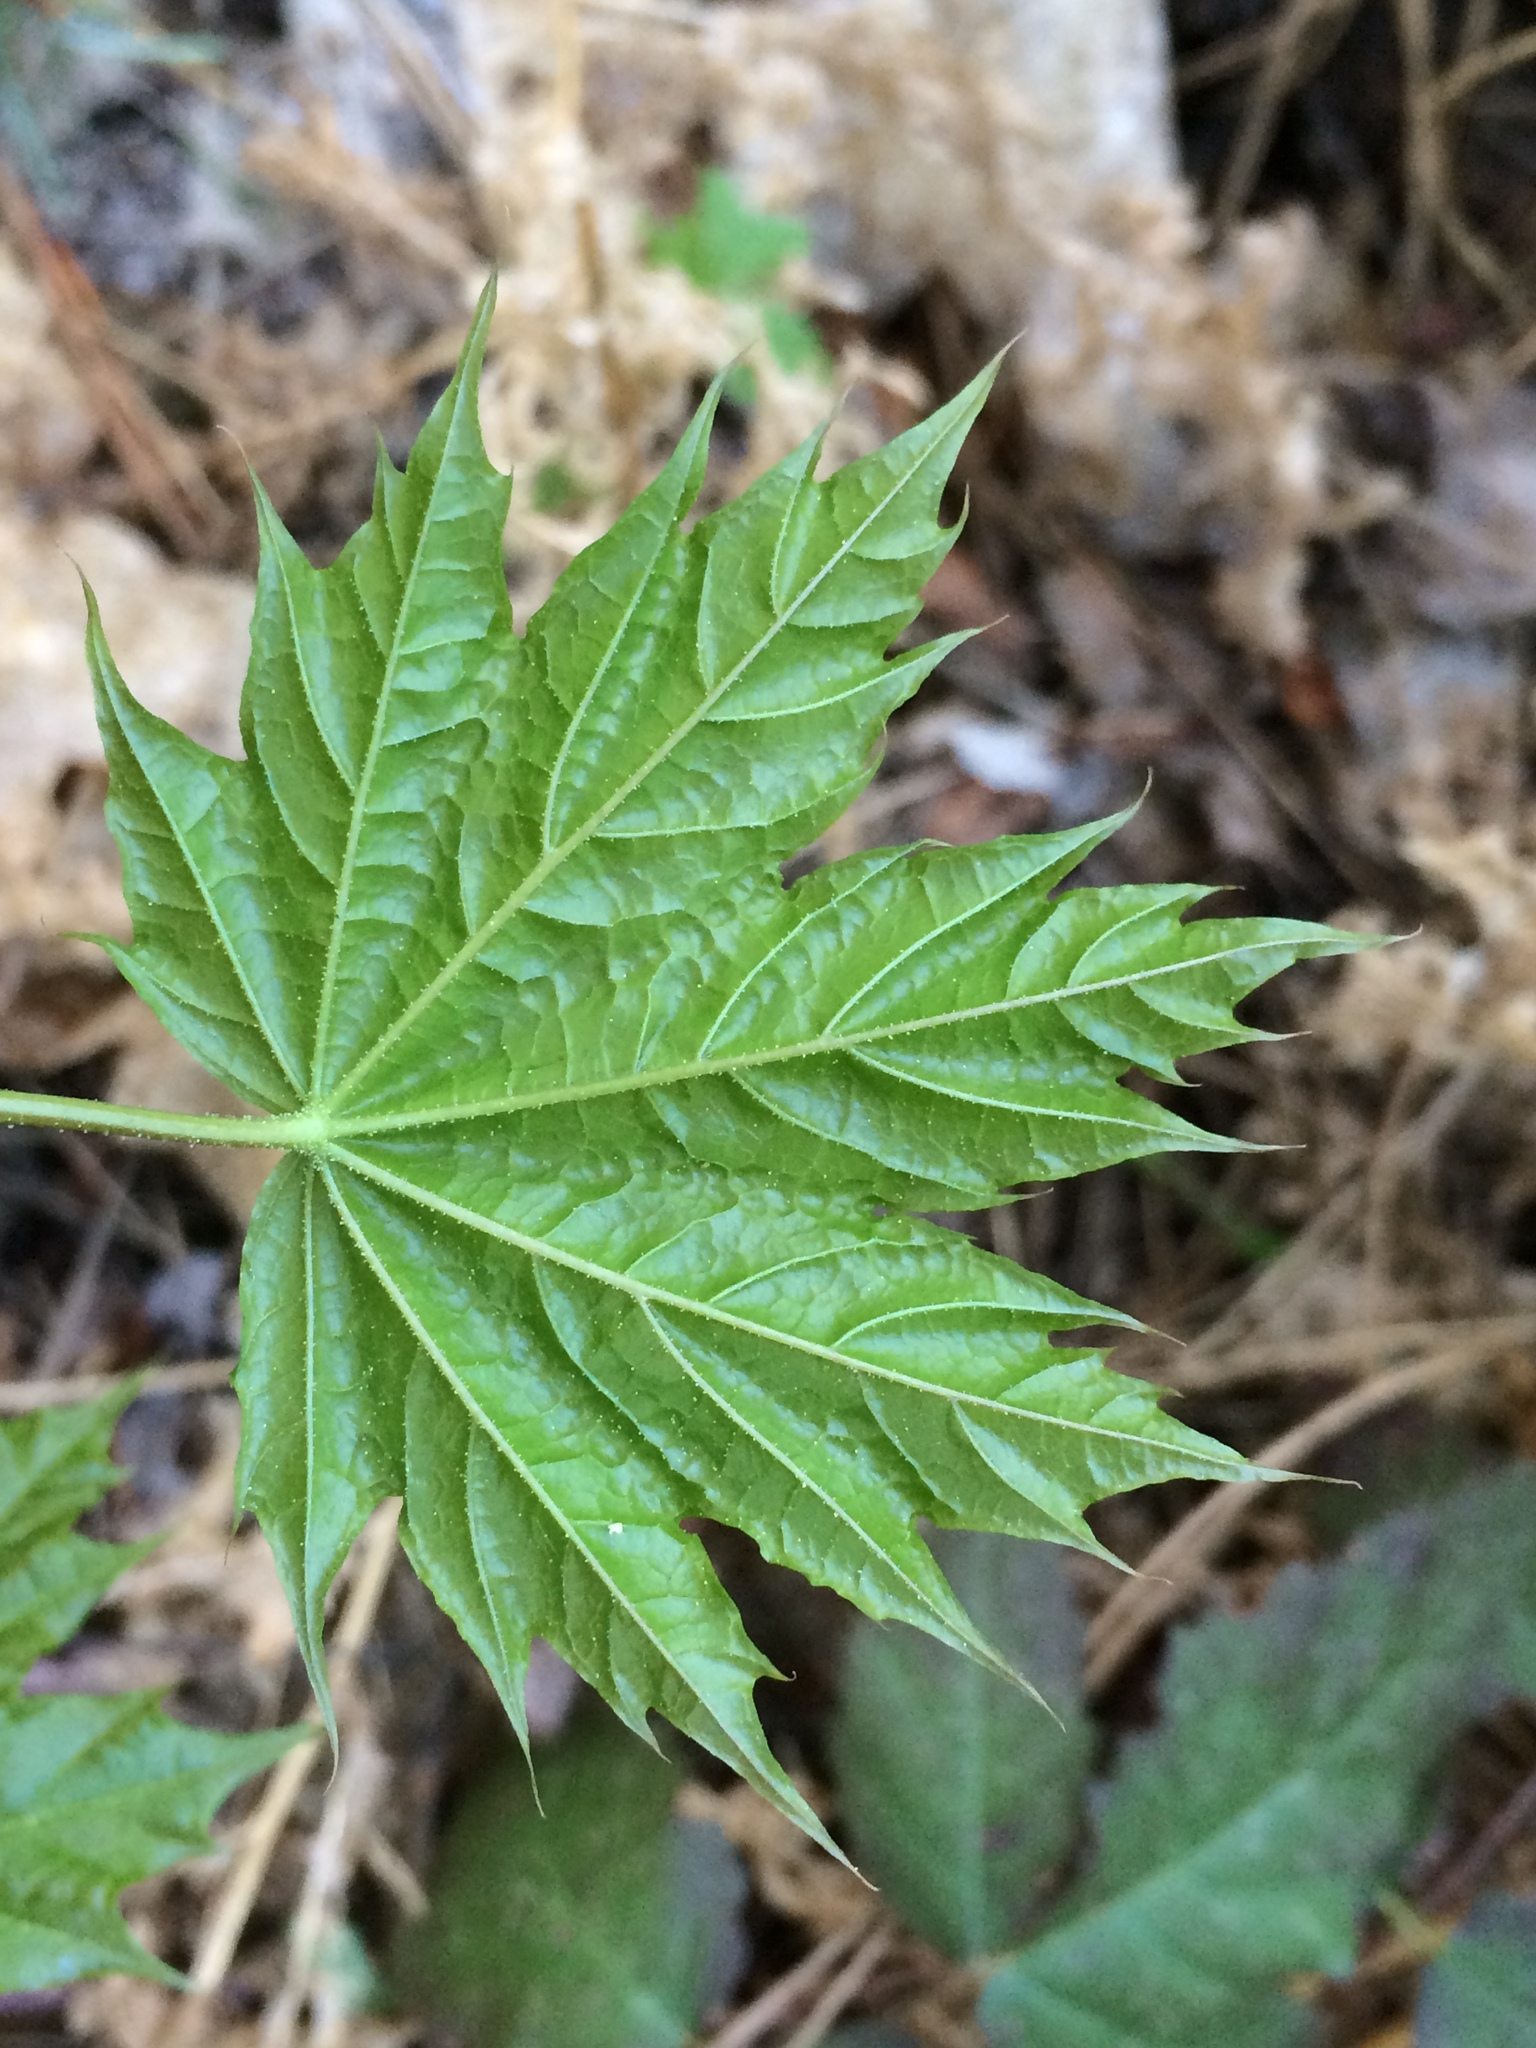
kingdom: Plantae
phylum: Tracheophyta
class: Magnoliopsida
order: Sapindales
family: Sapindaceae
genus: Acer
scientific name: Acer platanoides
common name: Norway maple
